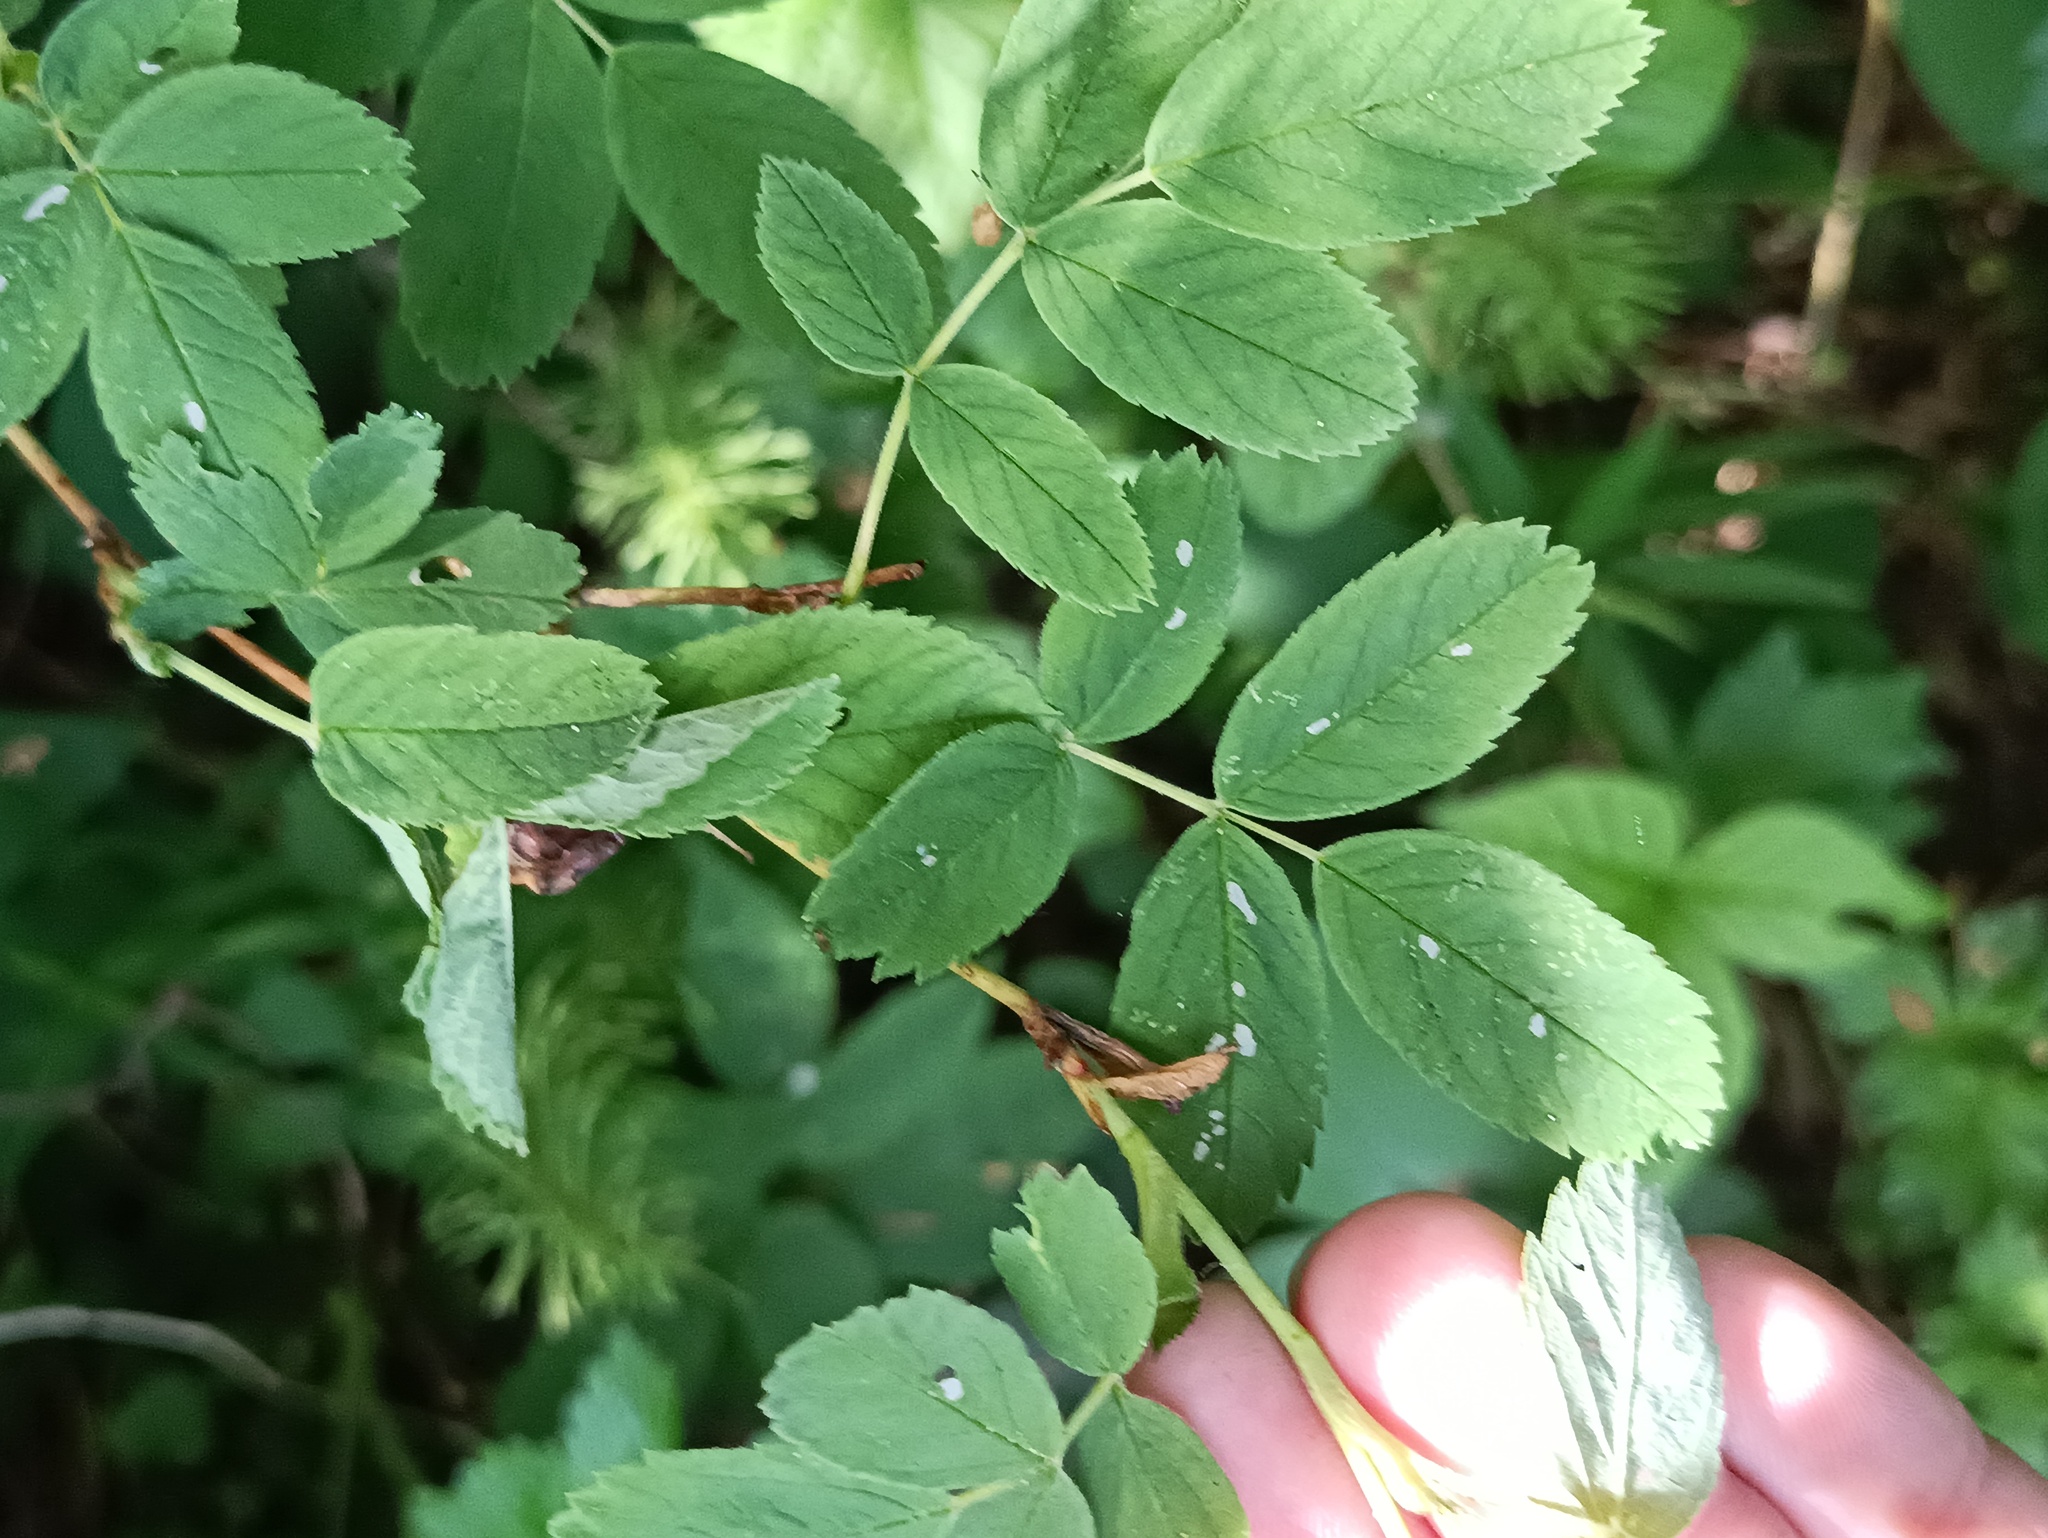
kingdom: Plantae
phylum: Tracheophyta
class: Magnoliopsida
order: Rosales
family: Rosaceae
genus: Rosa
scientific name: Rosa majalis
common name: Cinnamon rose
